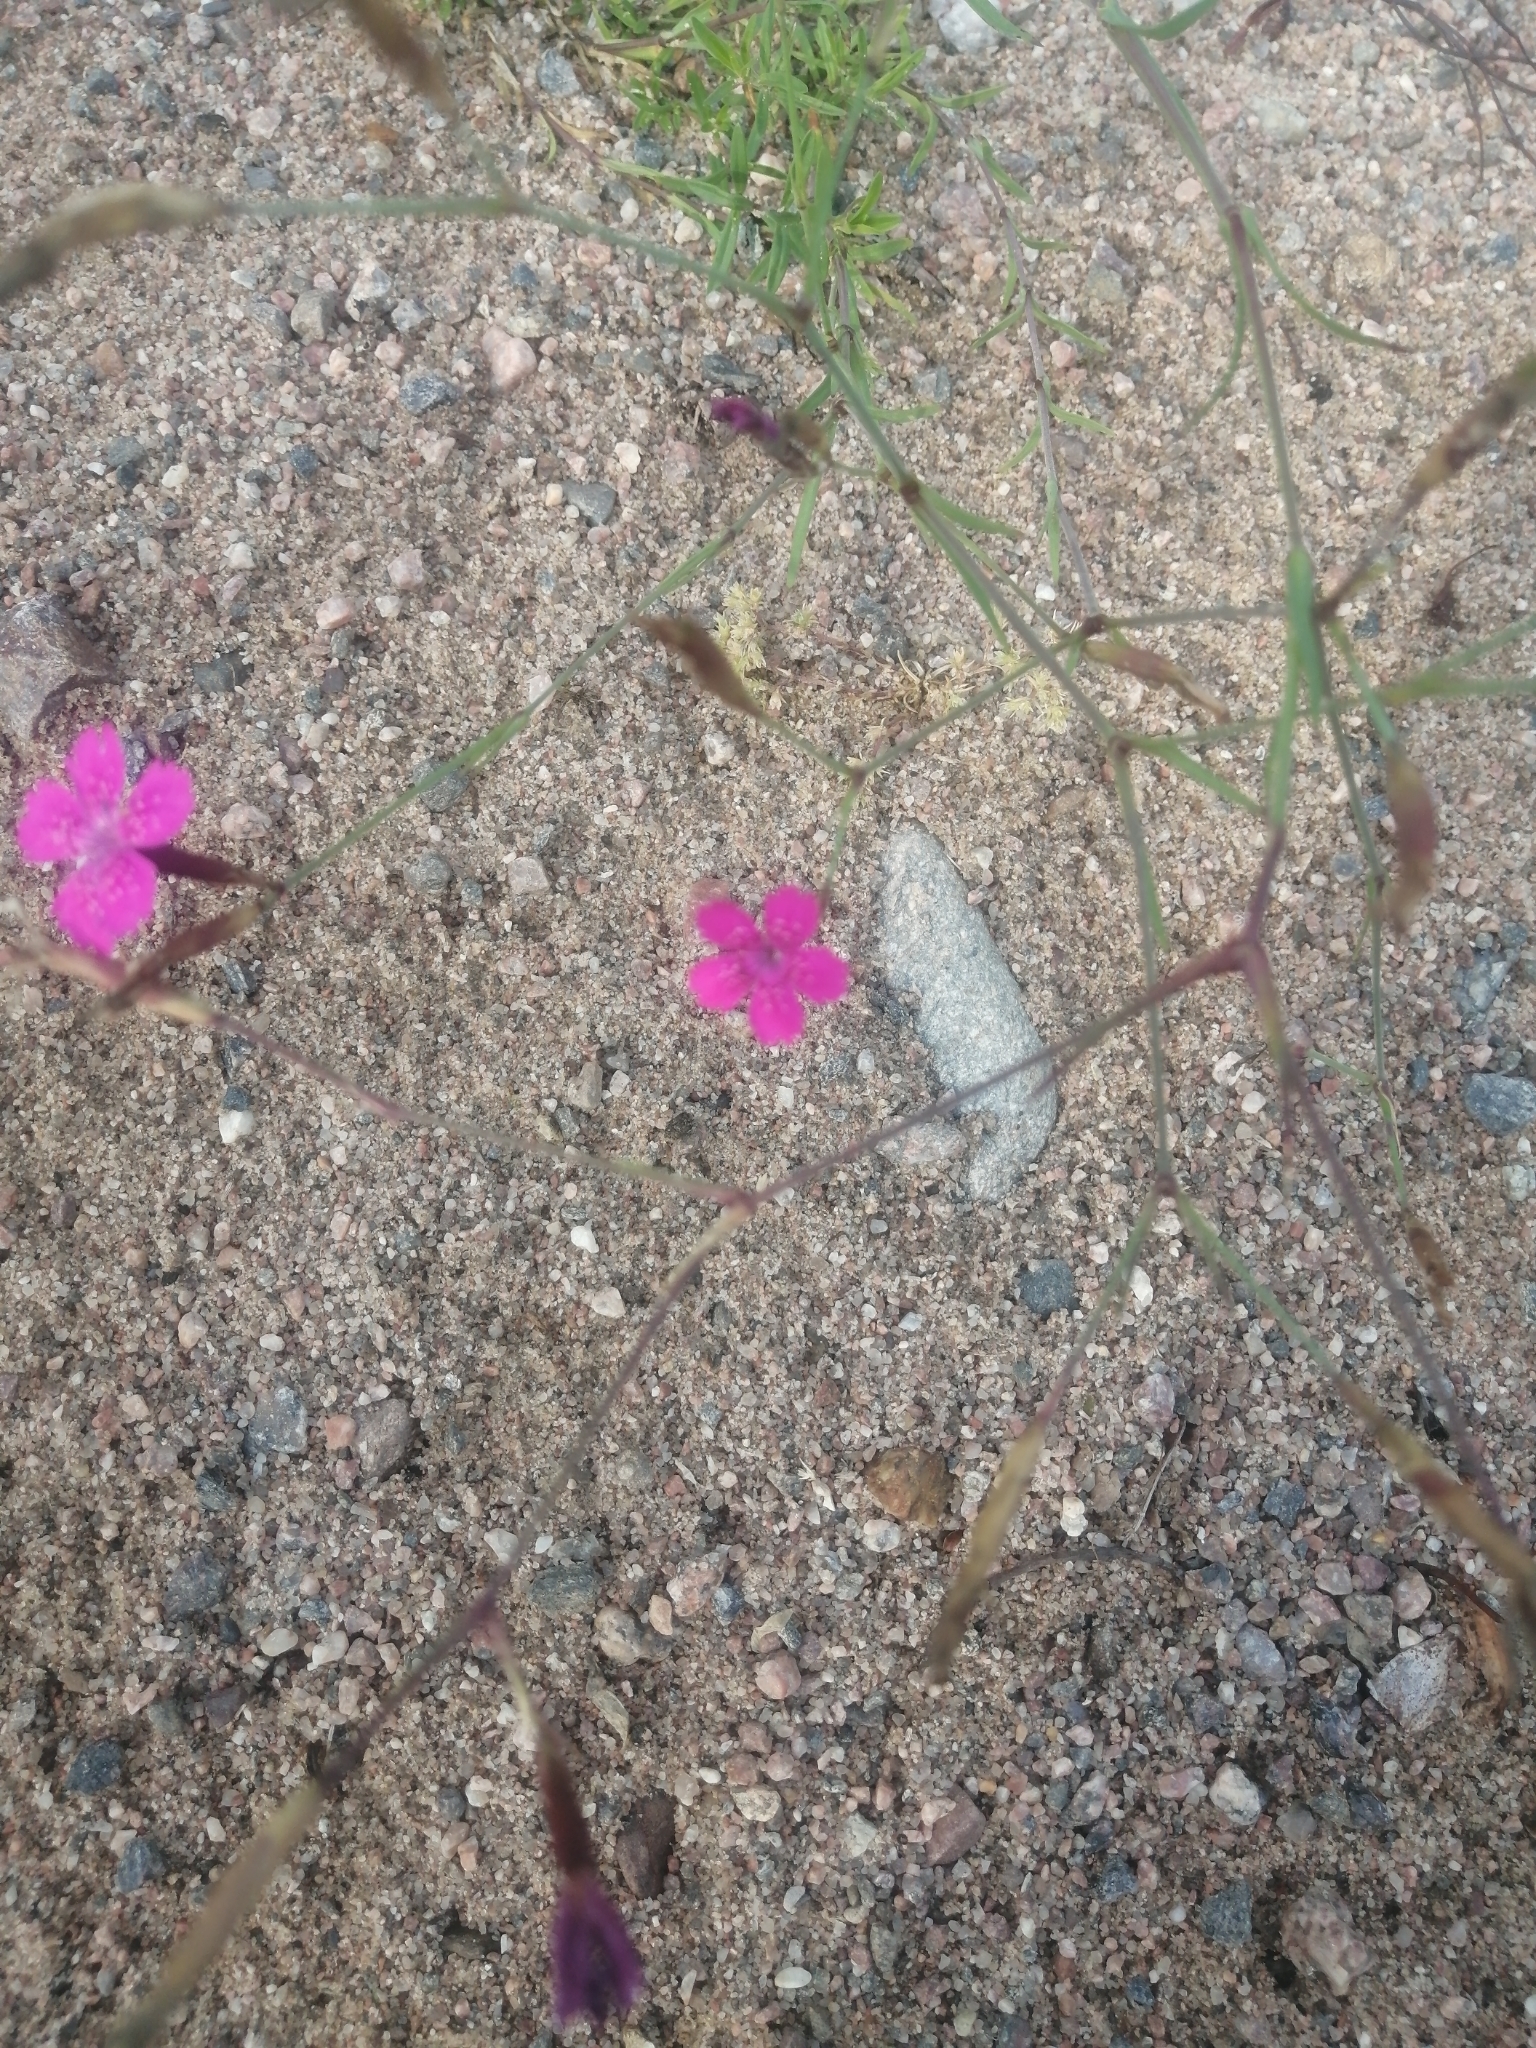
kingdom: Plantae
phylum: Tracheophyta
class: Magnoliopsida
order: Caryophyllales
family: Caryophyllaceae
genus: Dianthus
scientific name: Dianthus deltoides
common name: Maiden pink
